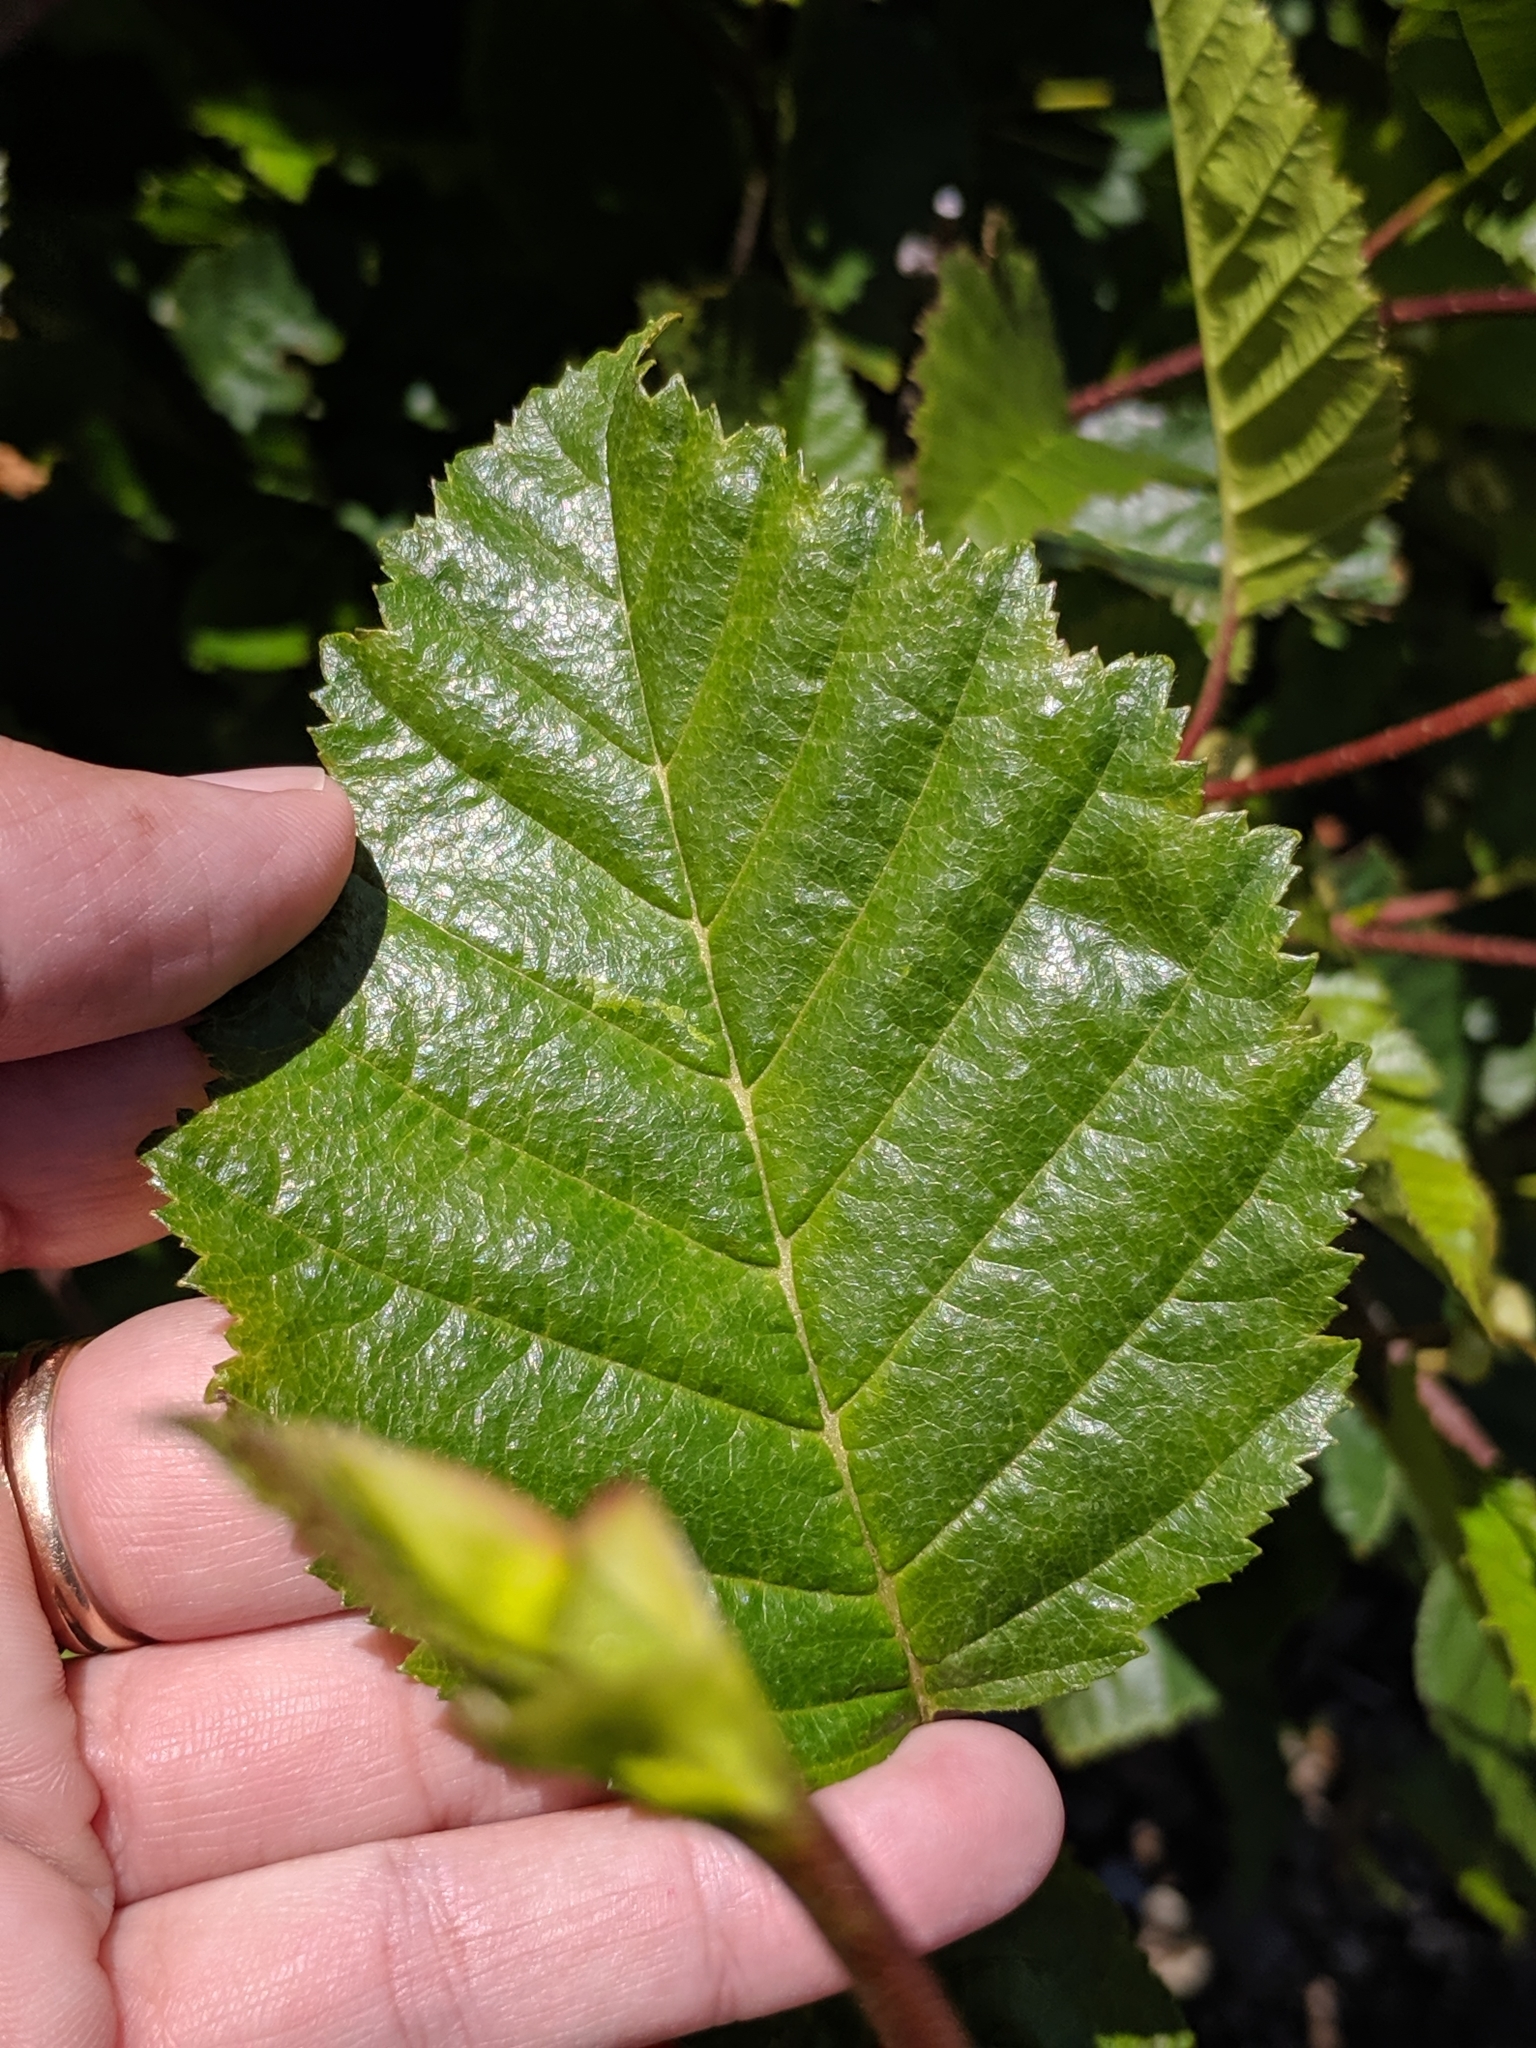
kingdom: Plantae
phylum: Tracheophyta
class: Magnoliopsida
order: Fagales
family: Betulaceae
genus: Alnus
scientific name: Alnus alnobetula
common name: Green alder
